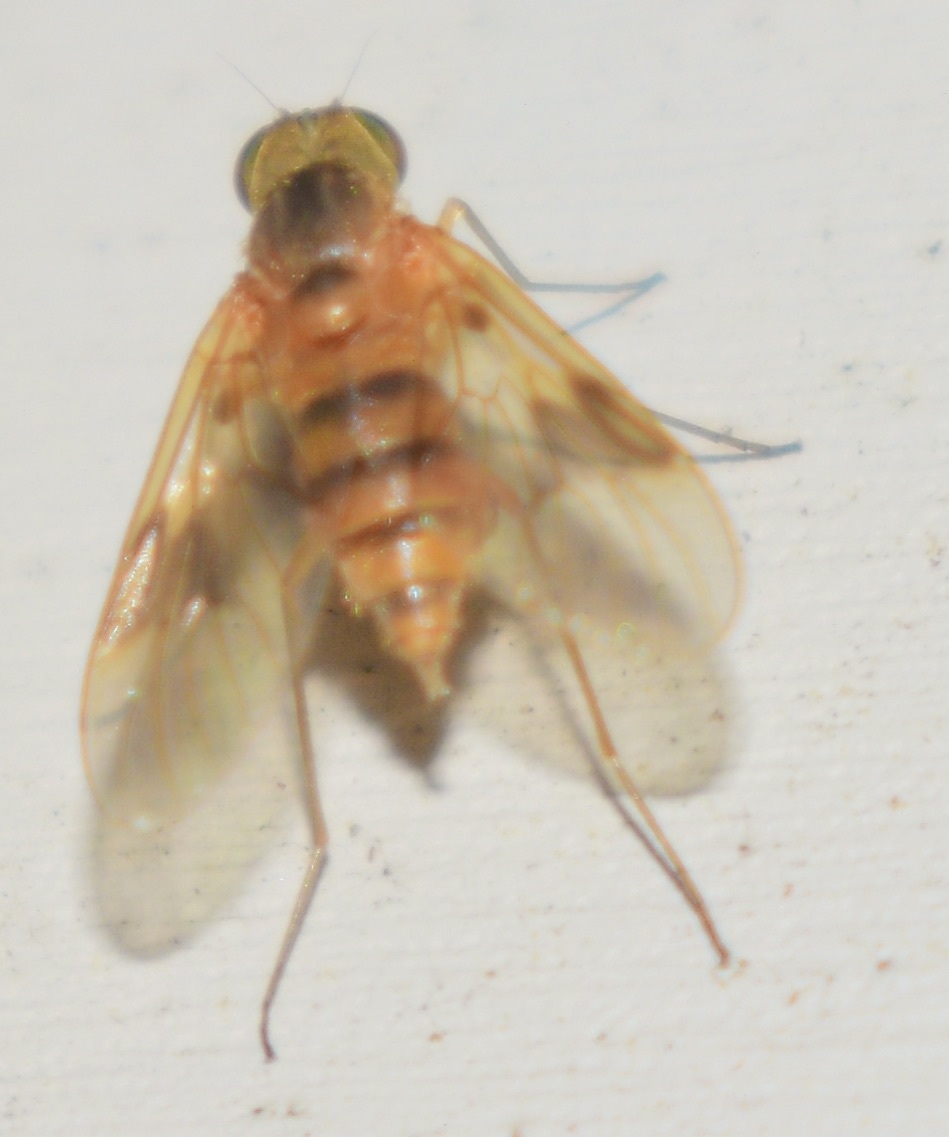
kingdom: Animalia
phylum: Arthropoda
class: Insecta
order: Diptera
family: Rhagionidae
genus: Chrysopilus
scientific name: Chrysopilus quadratus
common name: Quadrate snipe fly
